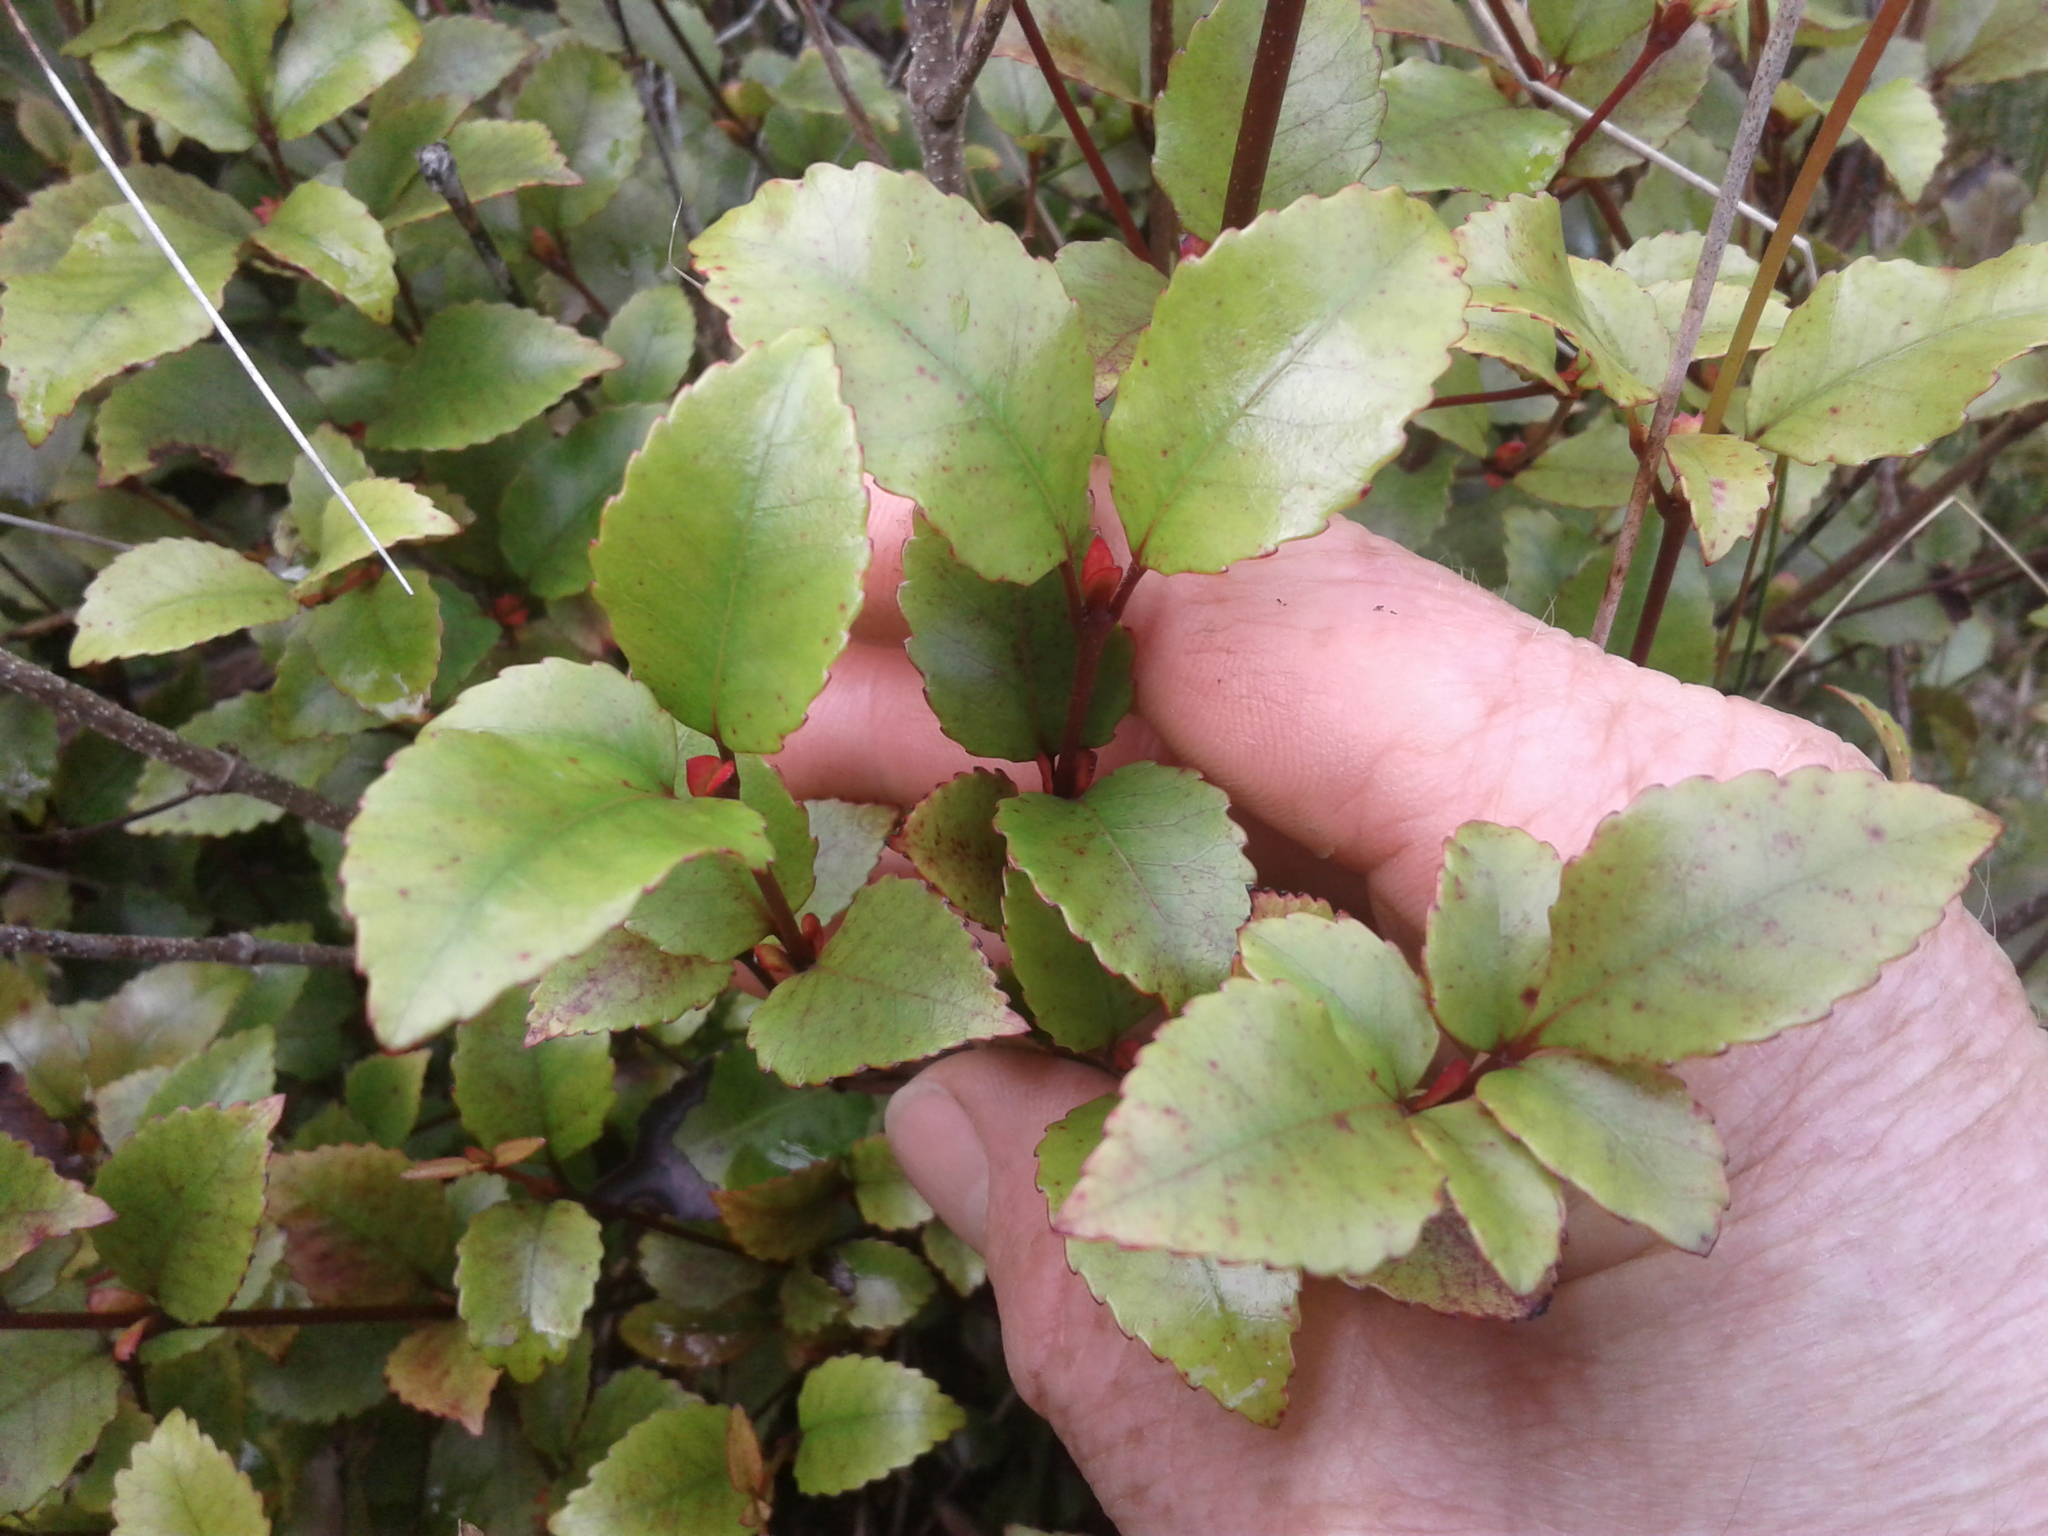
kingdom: Plantae
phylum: Tracheophyta
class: Magnoliopsida
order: Oxalidales
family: Cunoniaceae
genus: Pterophylla
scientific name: Pterophylla racemosa
